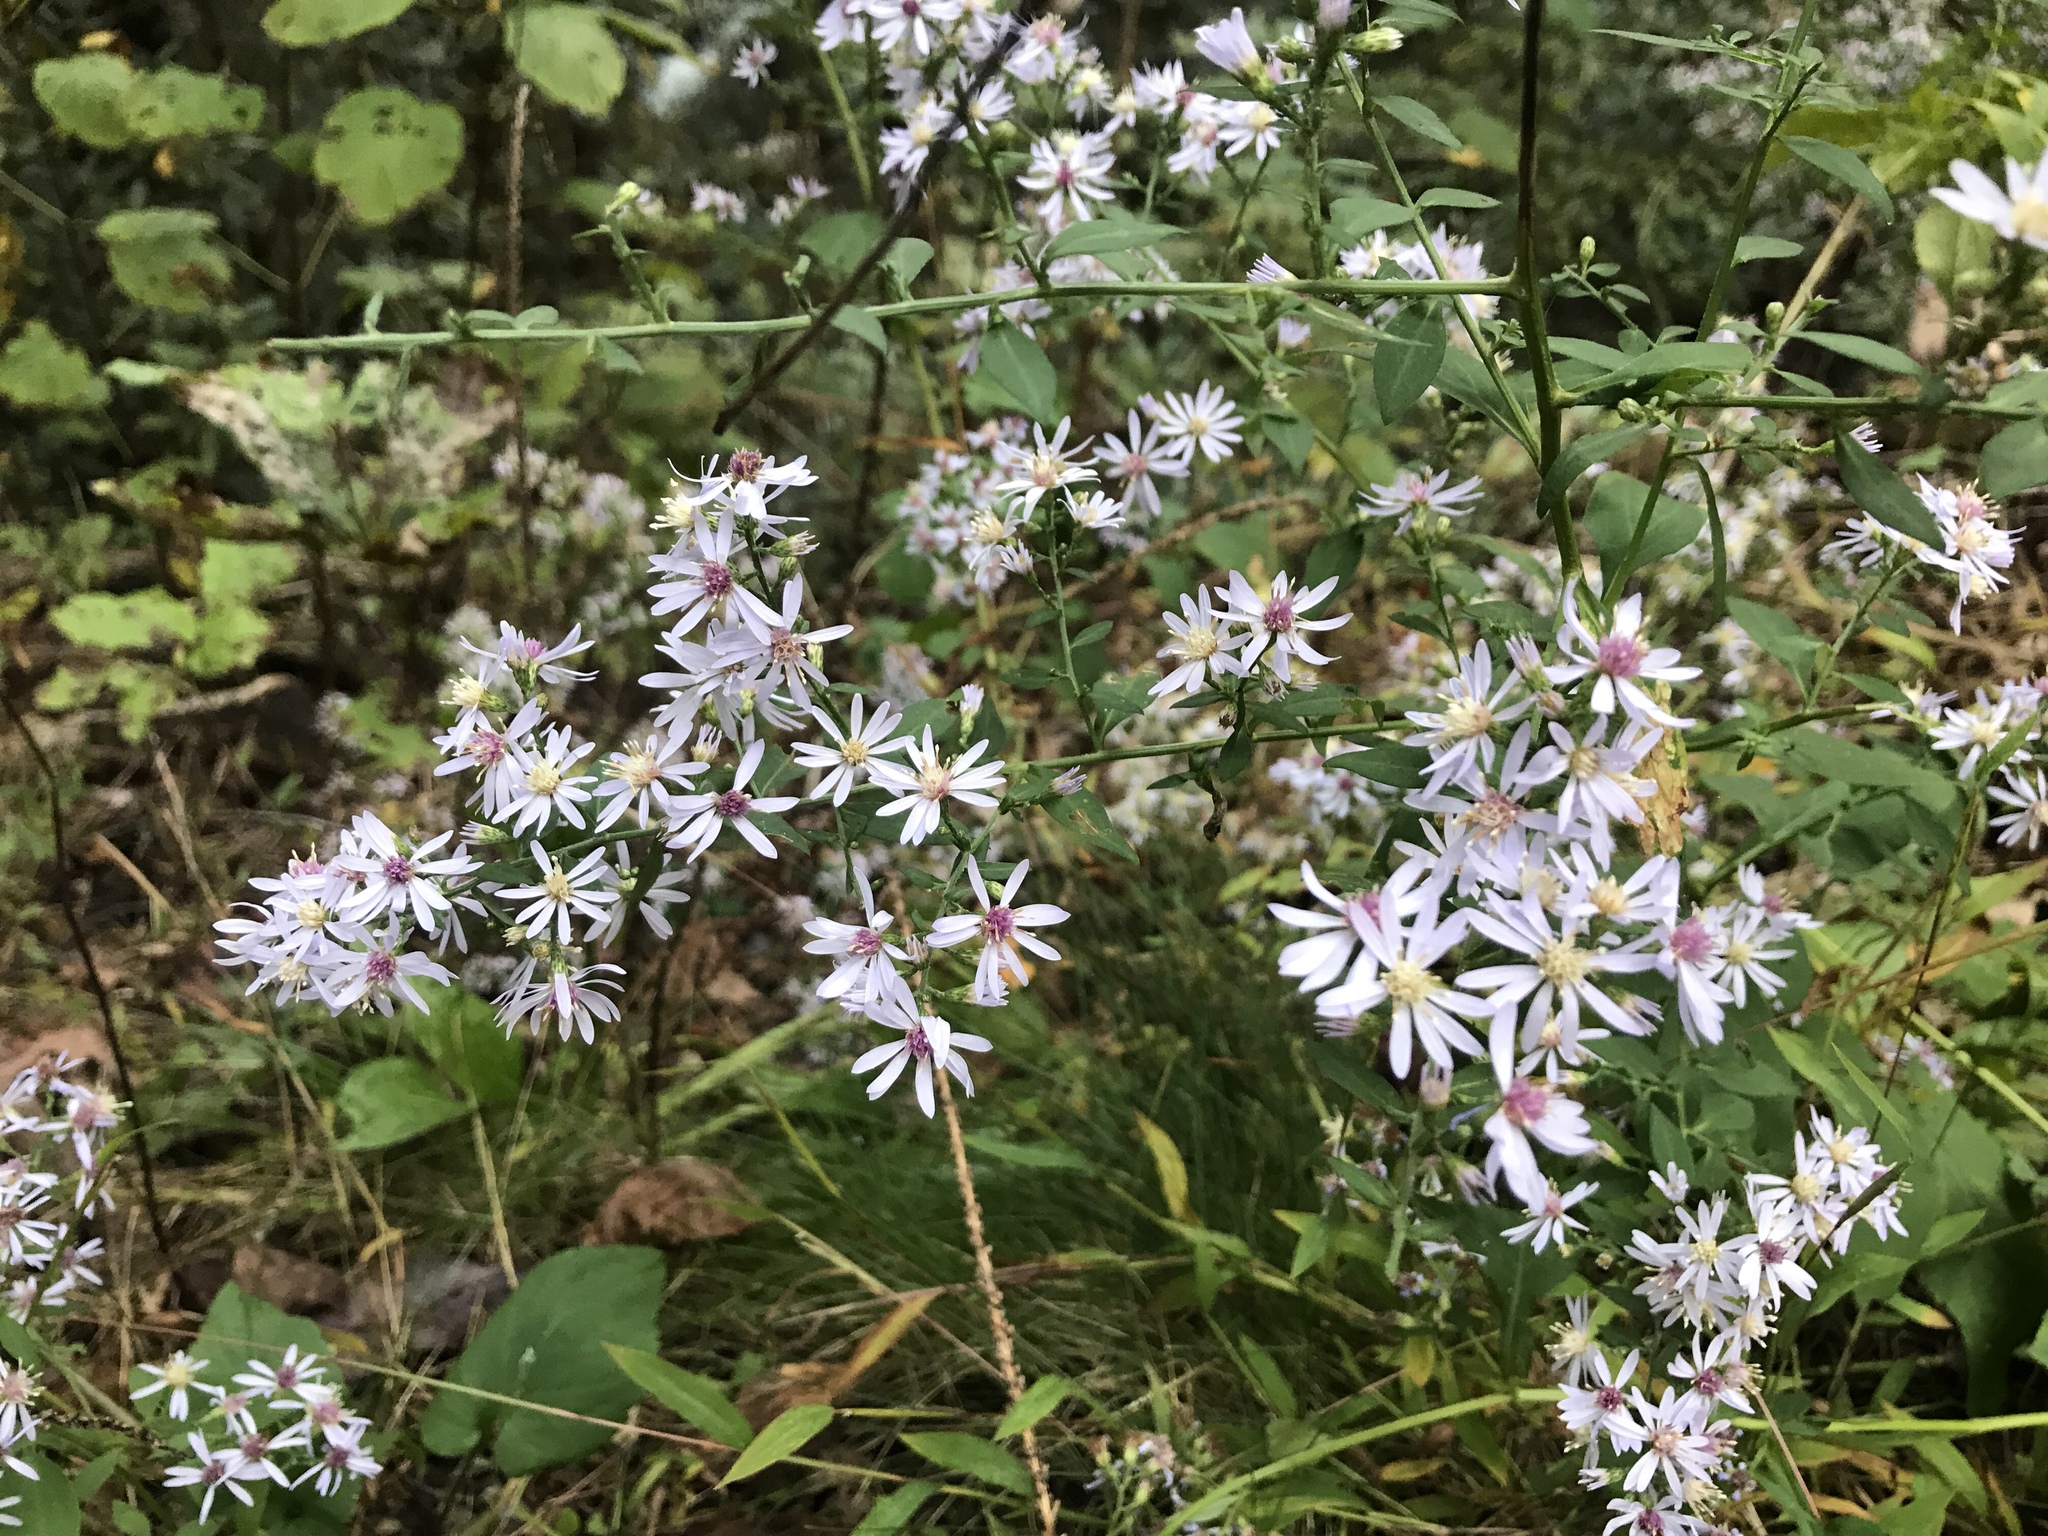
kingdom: Plantae
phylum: Tracheophyta
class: Magnoliopsida
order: Asterales
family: Asteraceae
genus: Symphyotrichum
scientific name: Symphyotrichum cordifolium
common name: Beeweed
